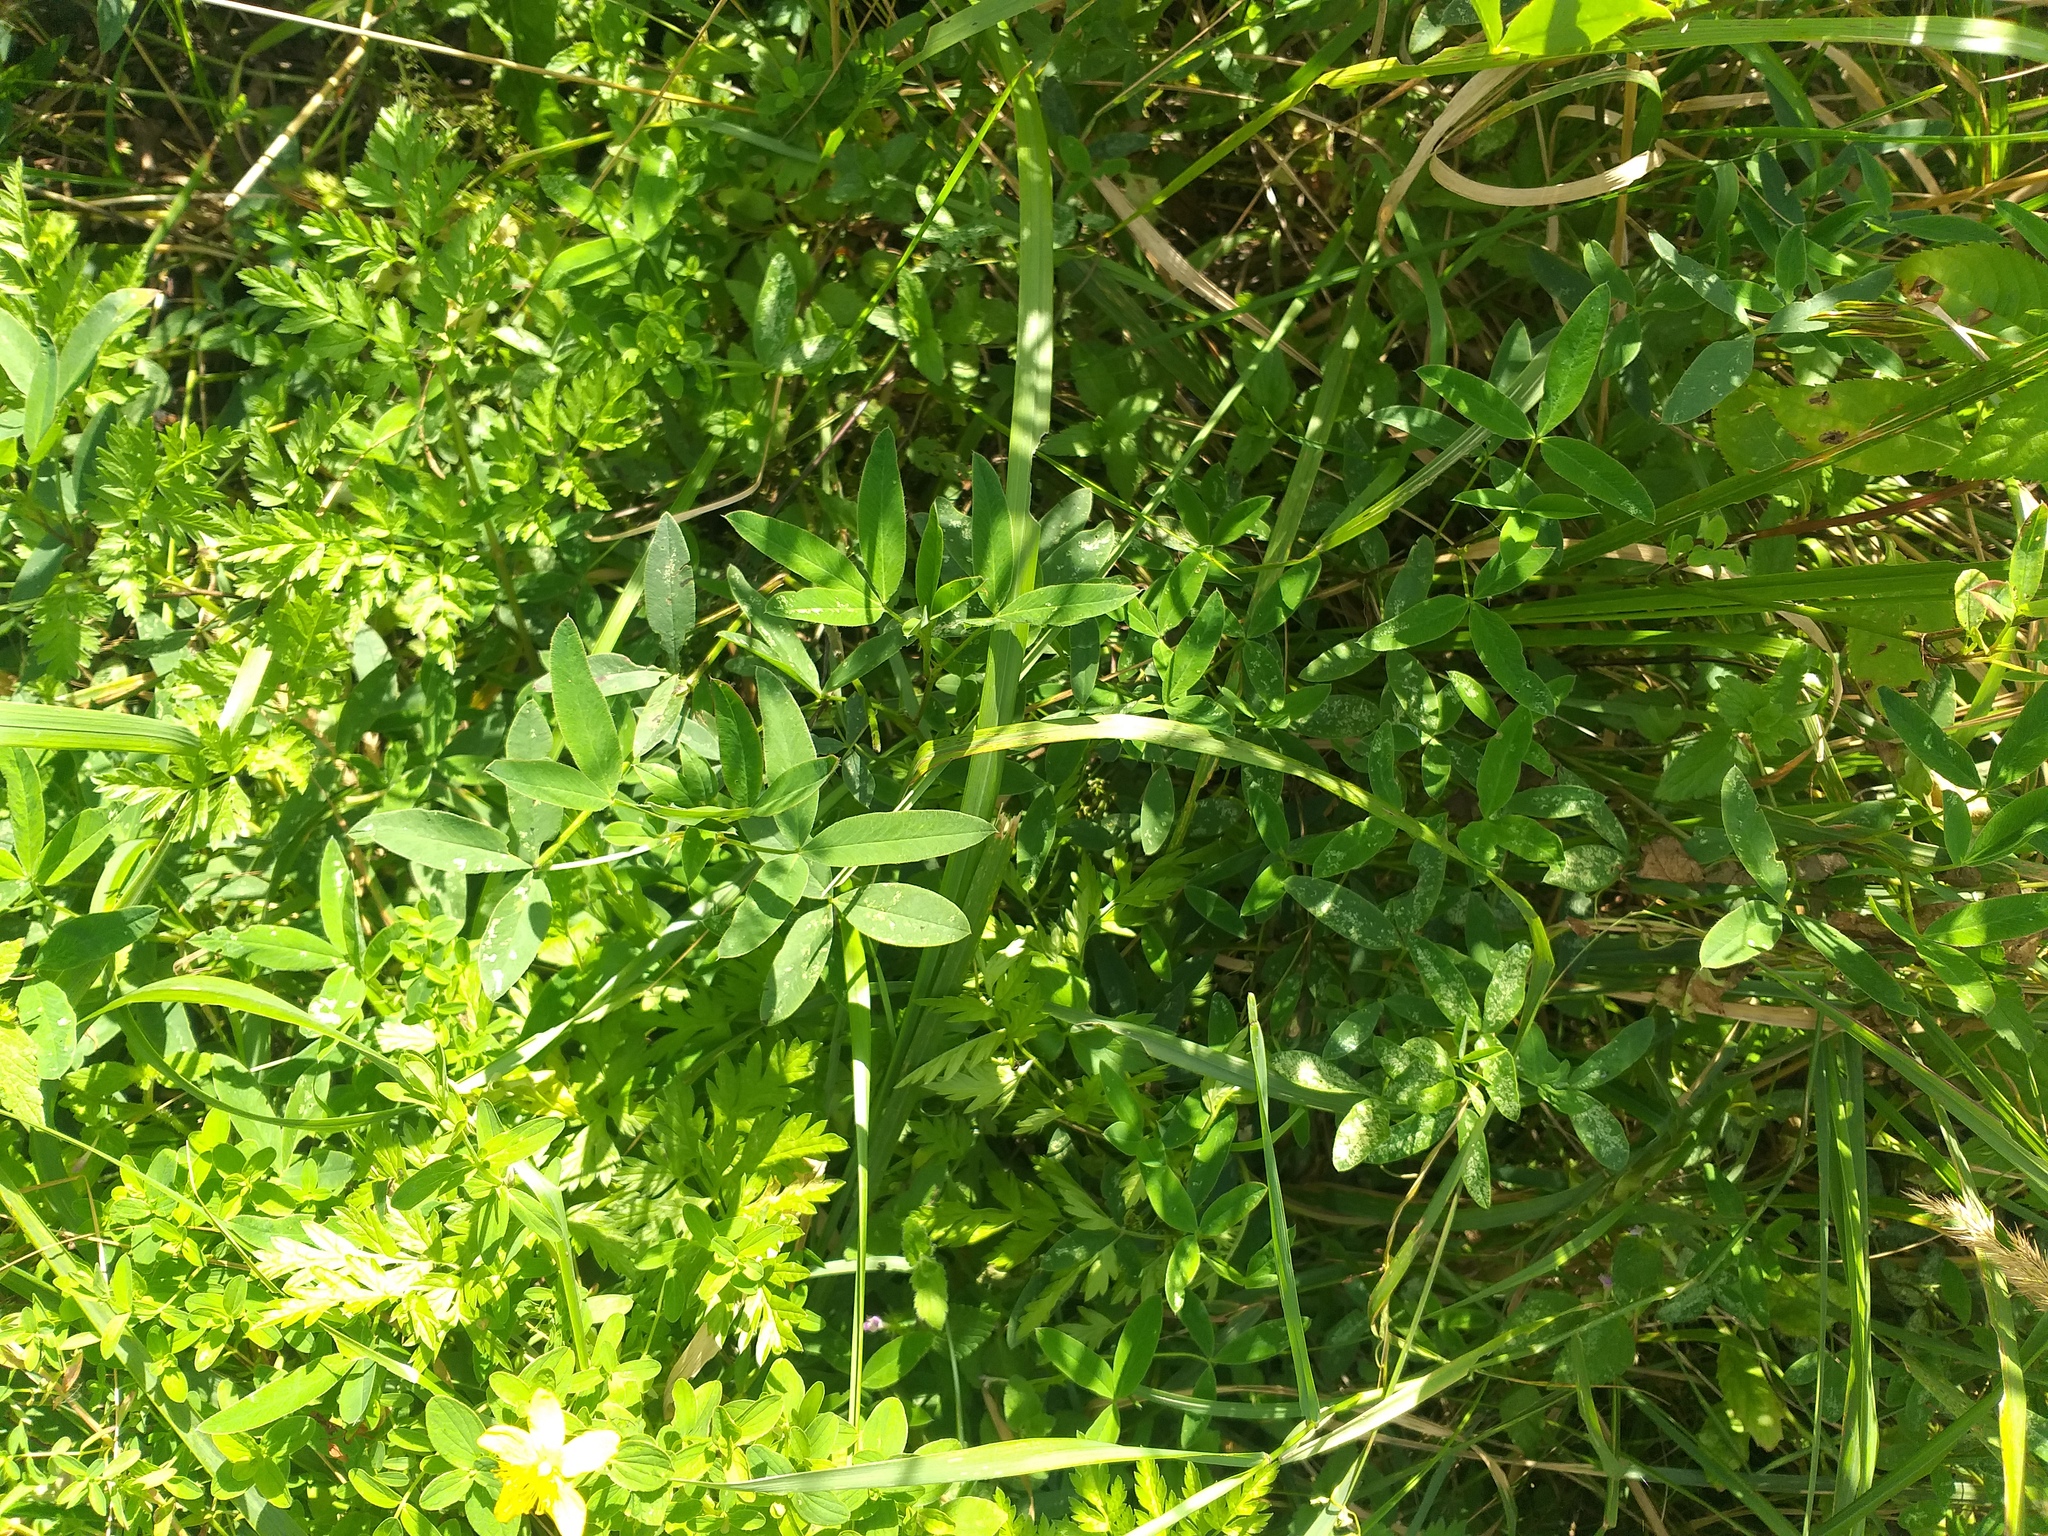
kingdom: Plantae
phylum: Tracheophyta
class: Magnoliopsida
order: Fabales
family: Fabaceae
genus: Trifolium
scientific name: Trifolium medium
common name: Zigzag clover
